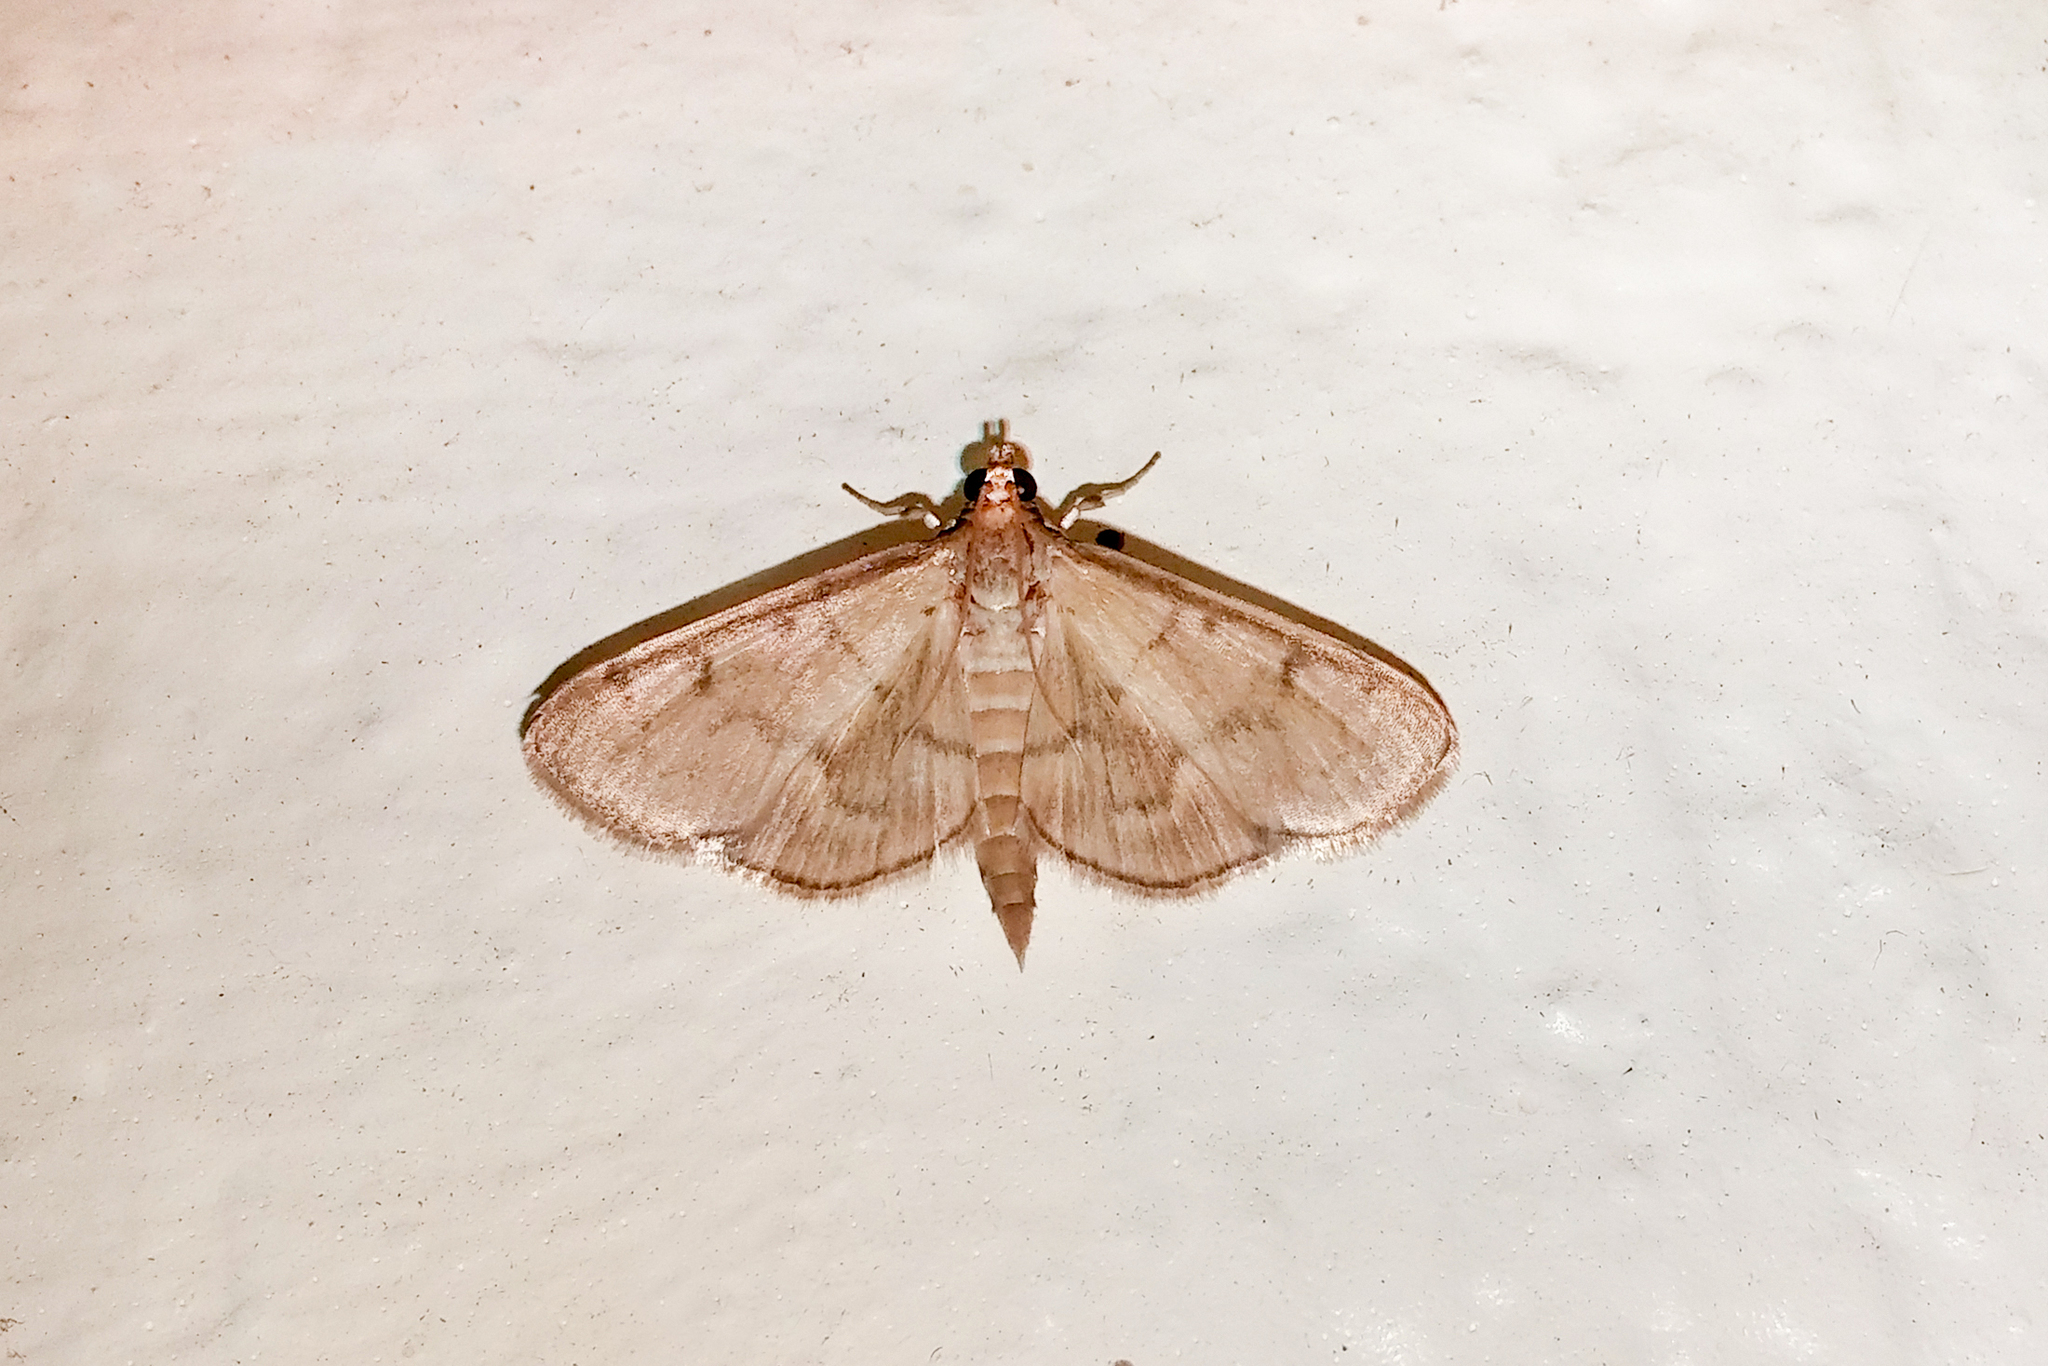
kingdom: Animalia
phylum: Arthropoda
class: Insecta
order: Lepidoptera
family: Crambidae
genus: Herpetogramma
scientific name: Herpetogramma theseusalis
